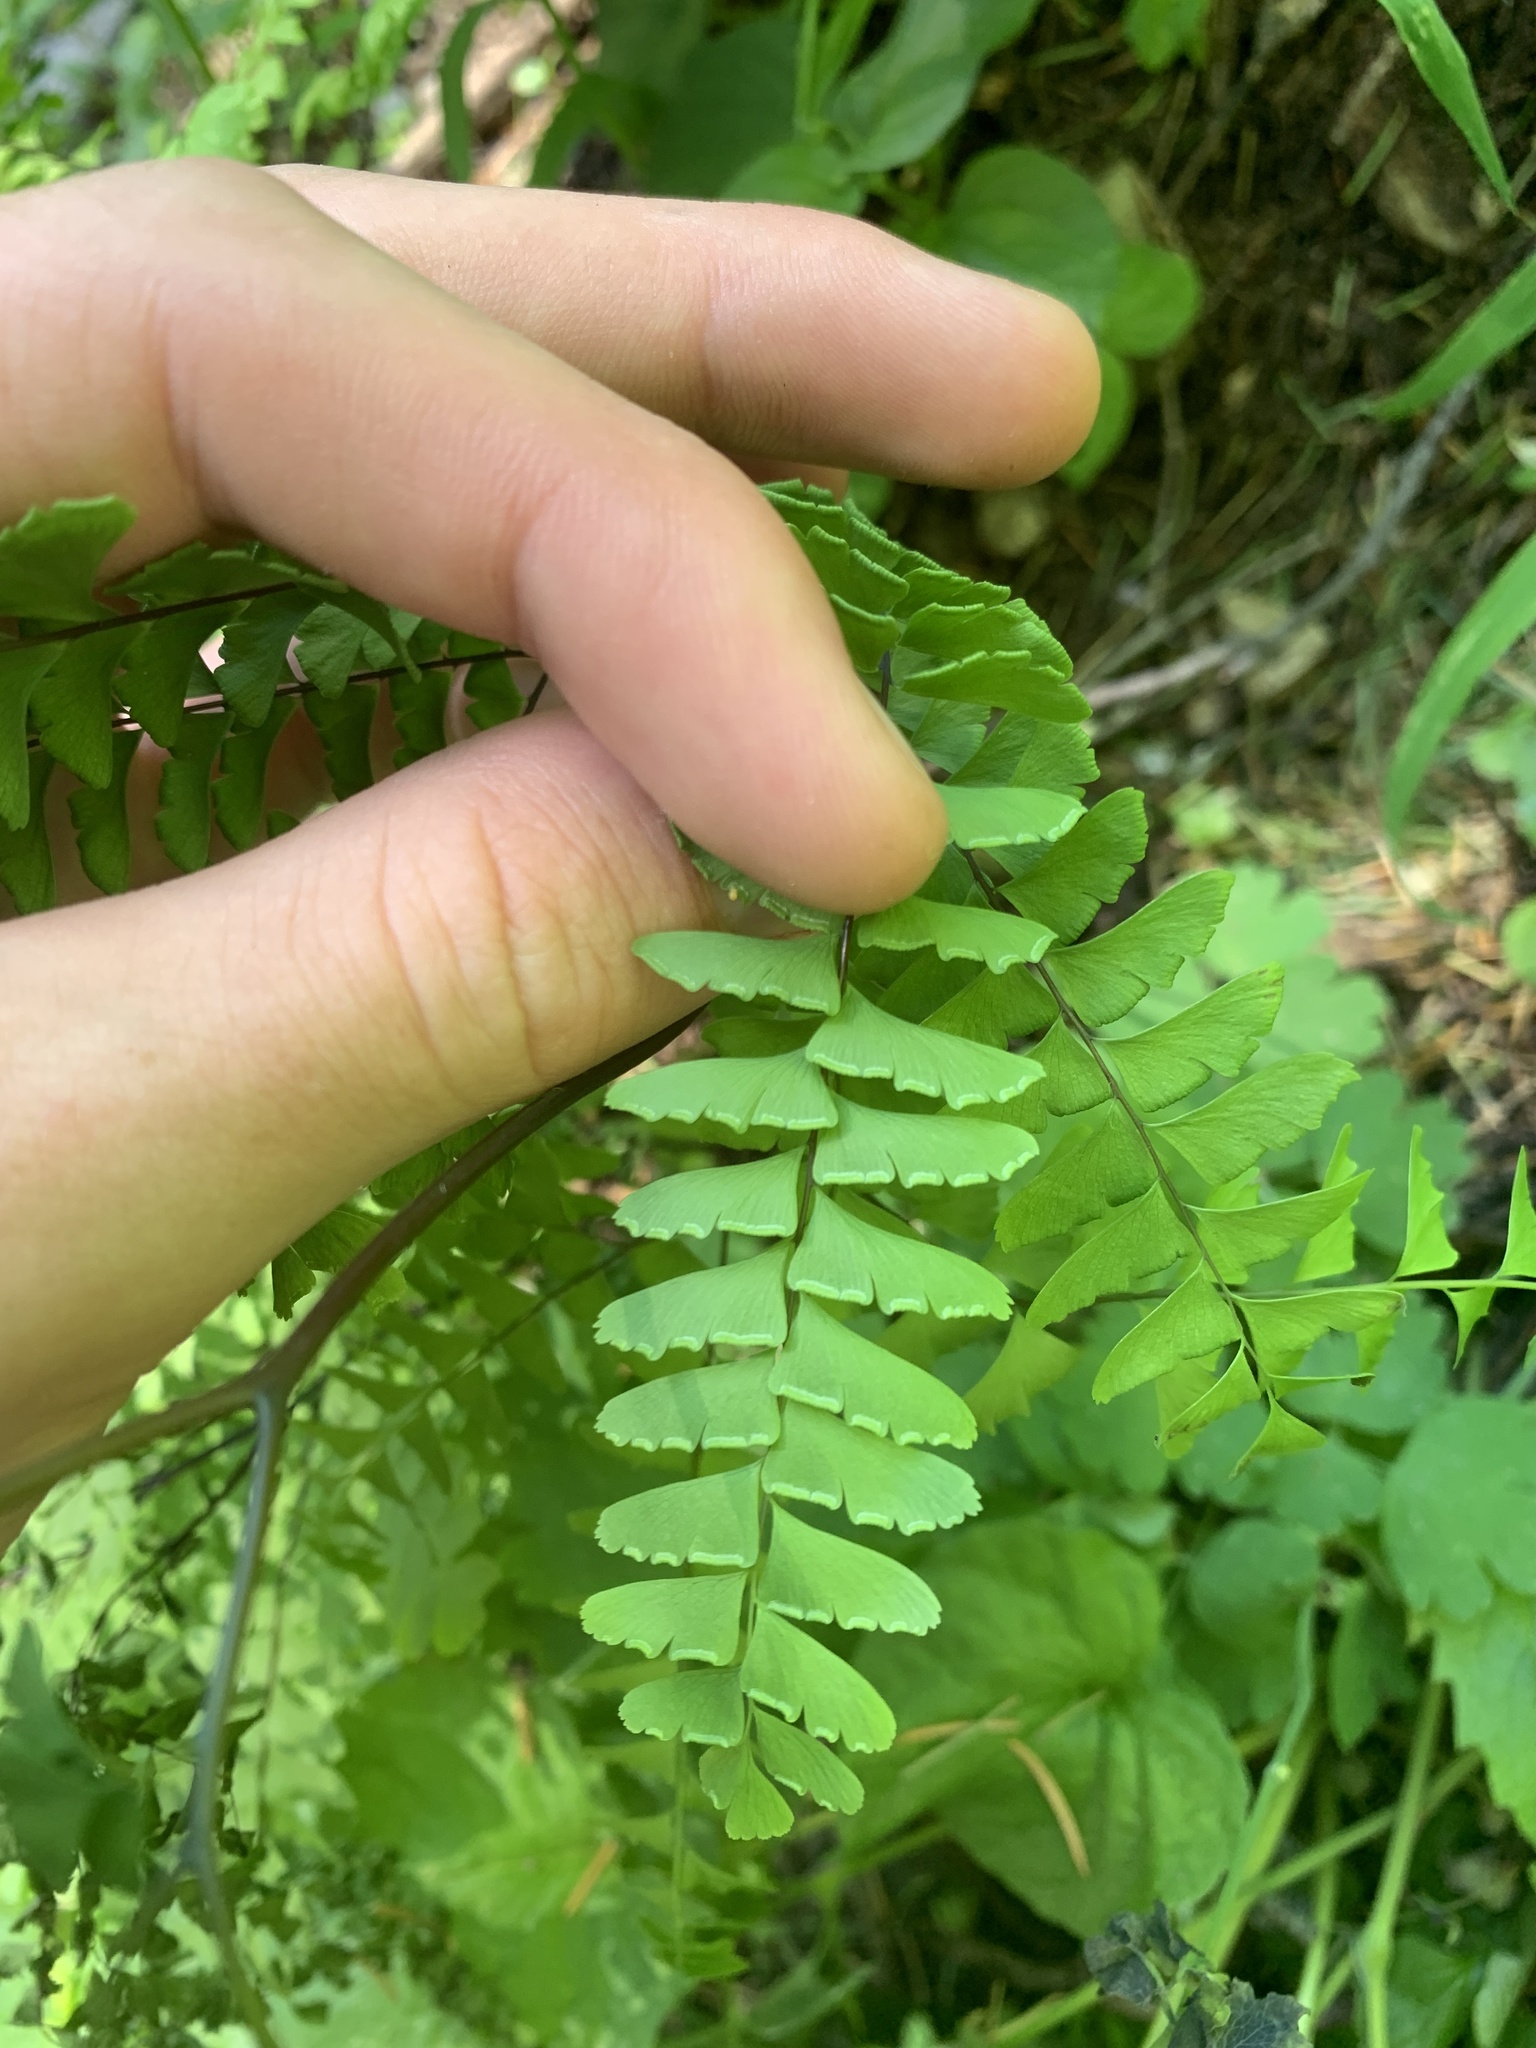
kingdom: Plantae
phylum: Tracheophyta
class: Polypodiopsida
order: Polypodiales
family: Pteridaceae
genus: Adiantum
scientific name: Adiantum aleuticum
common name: Aleutian maidenhair fern
